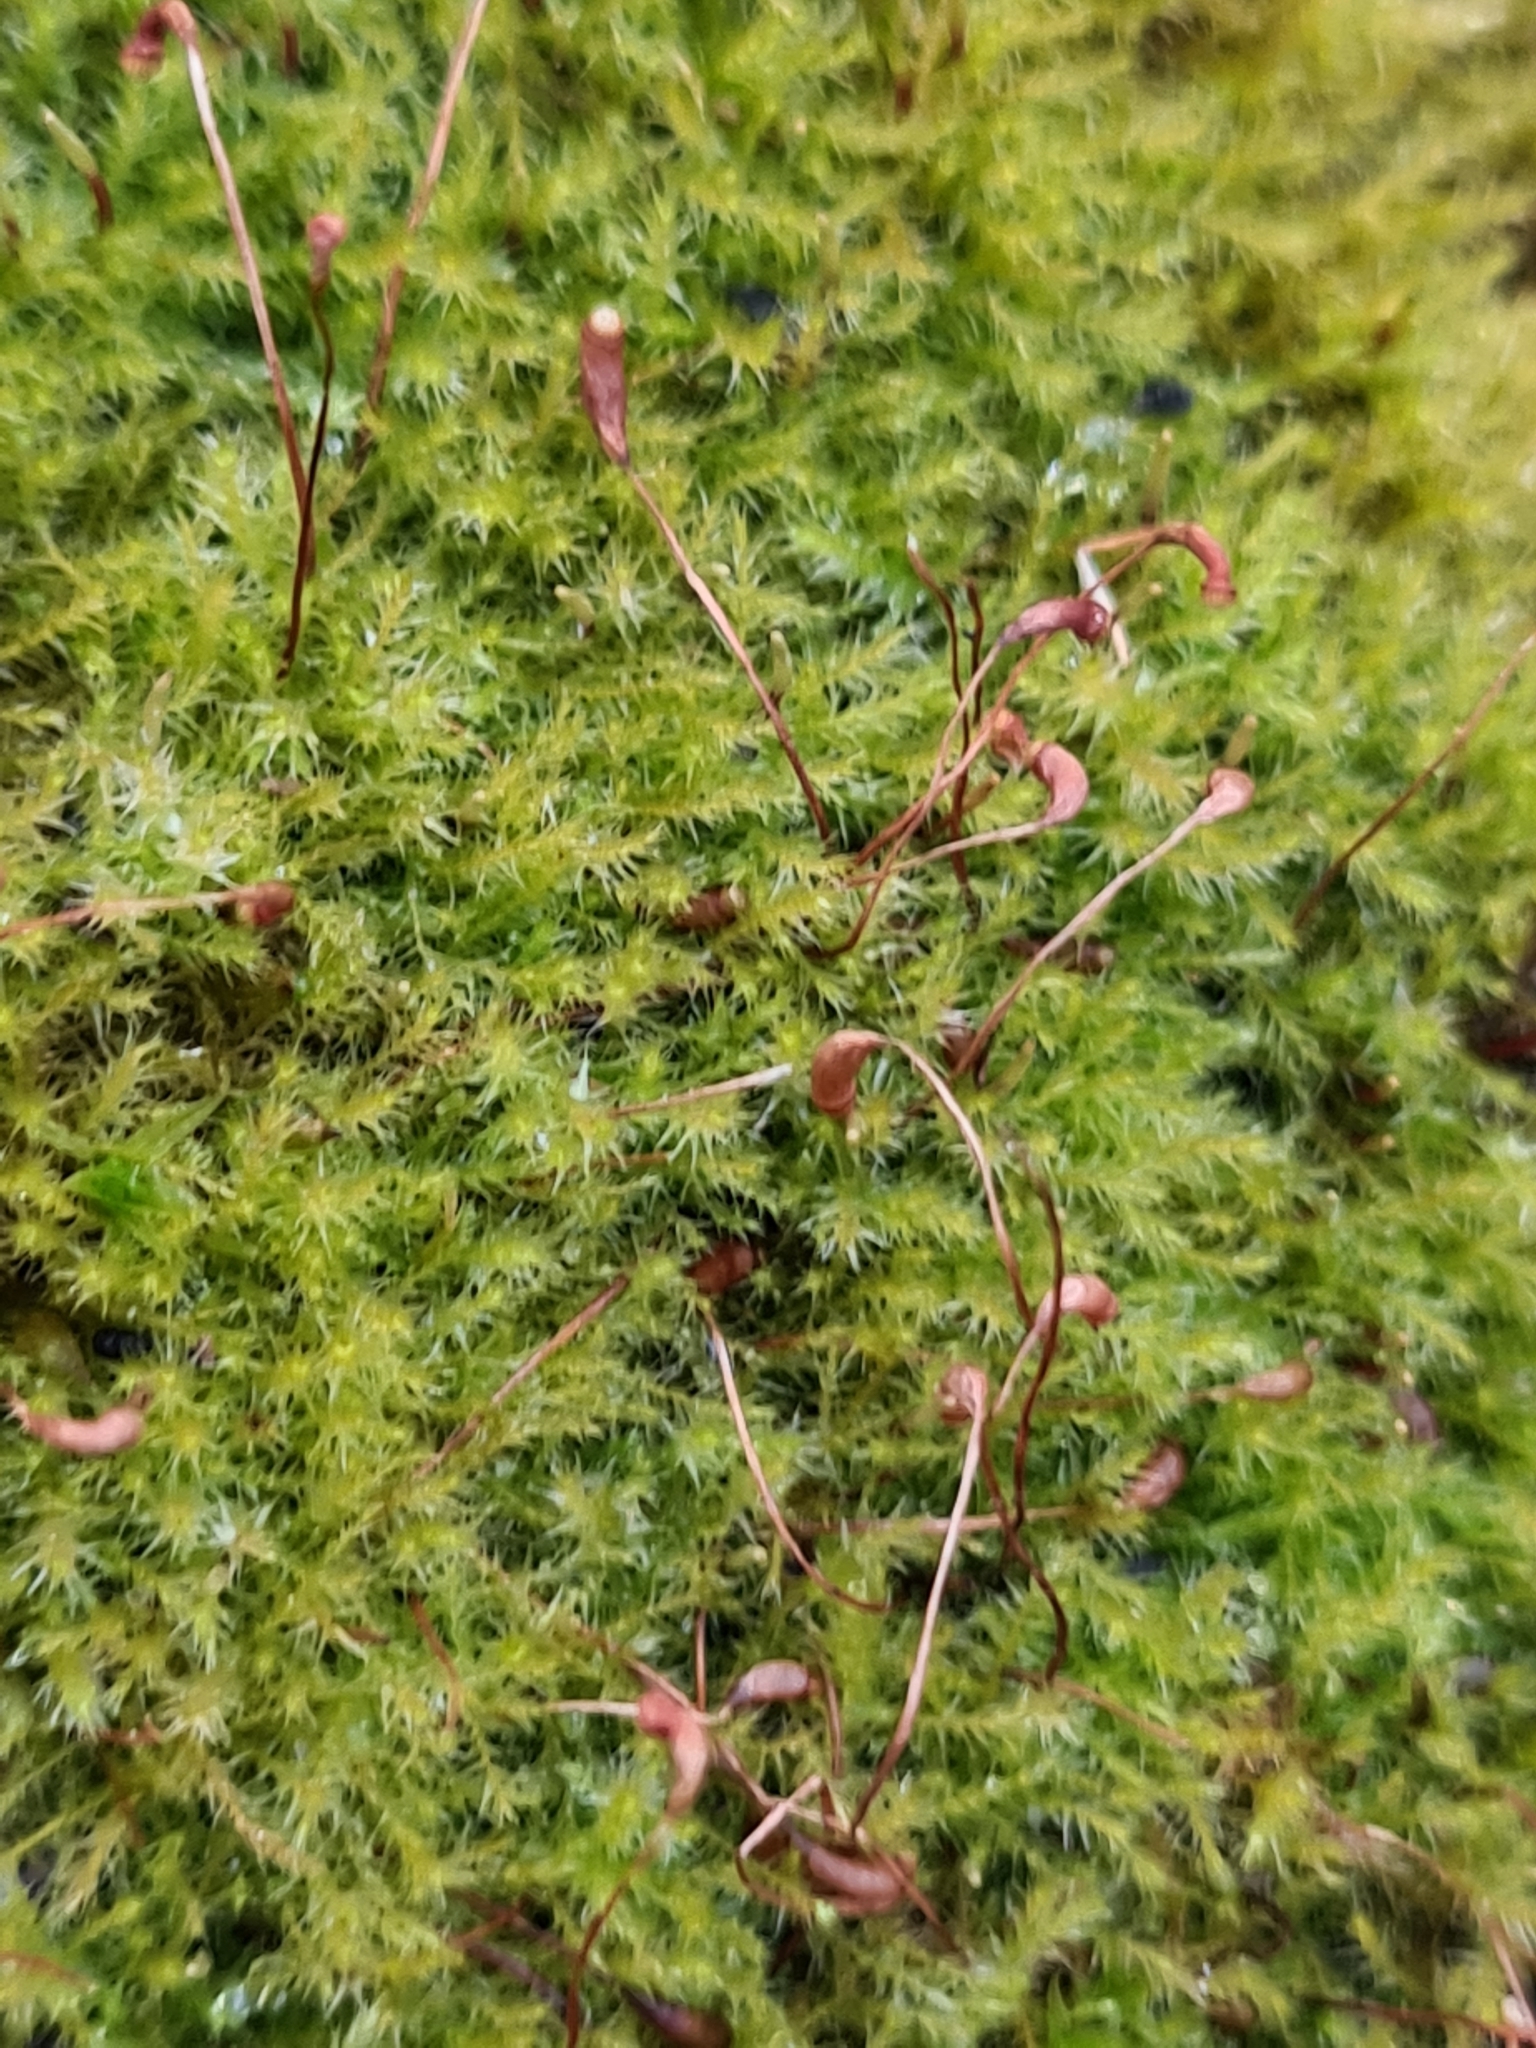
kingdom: Plantae
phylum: Bryophyta
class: Bryopsida
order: Hypnales
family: Amblystegiaceae
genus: Amblystegium
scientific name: Amblystegium serpens
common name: Jurkatzka's feather moss
